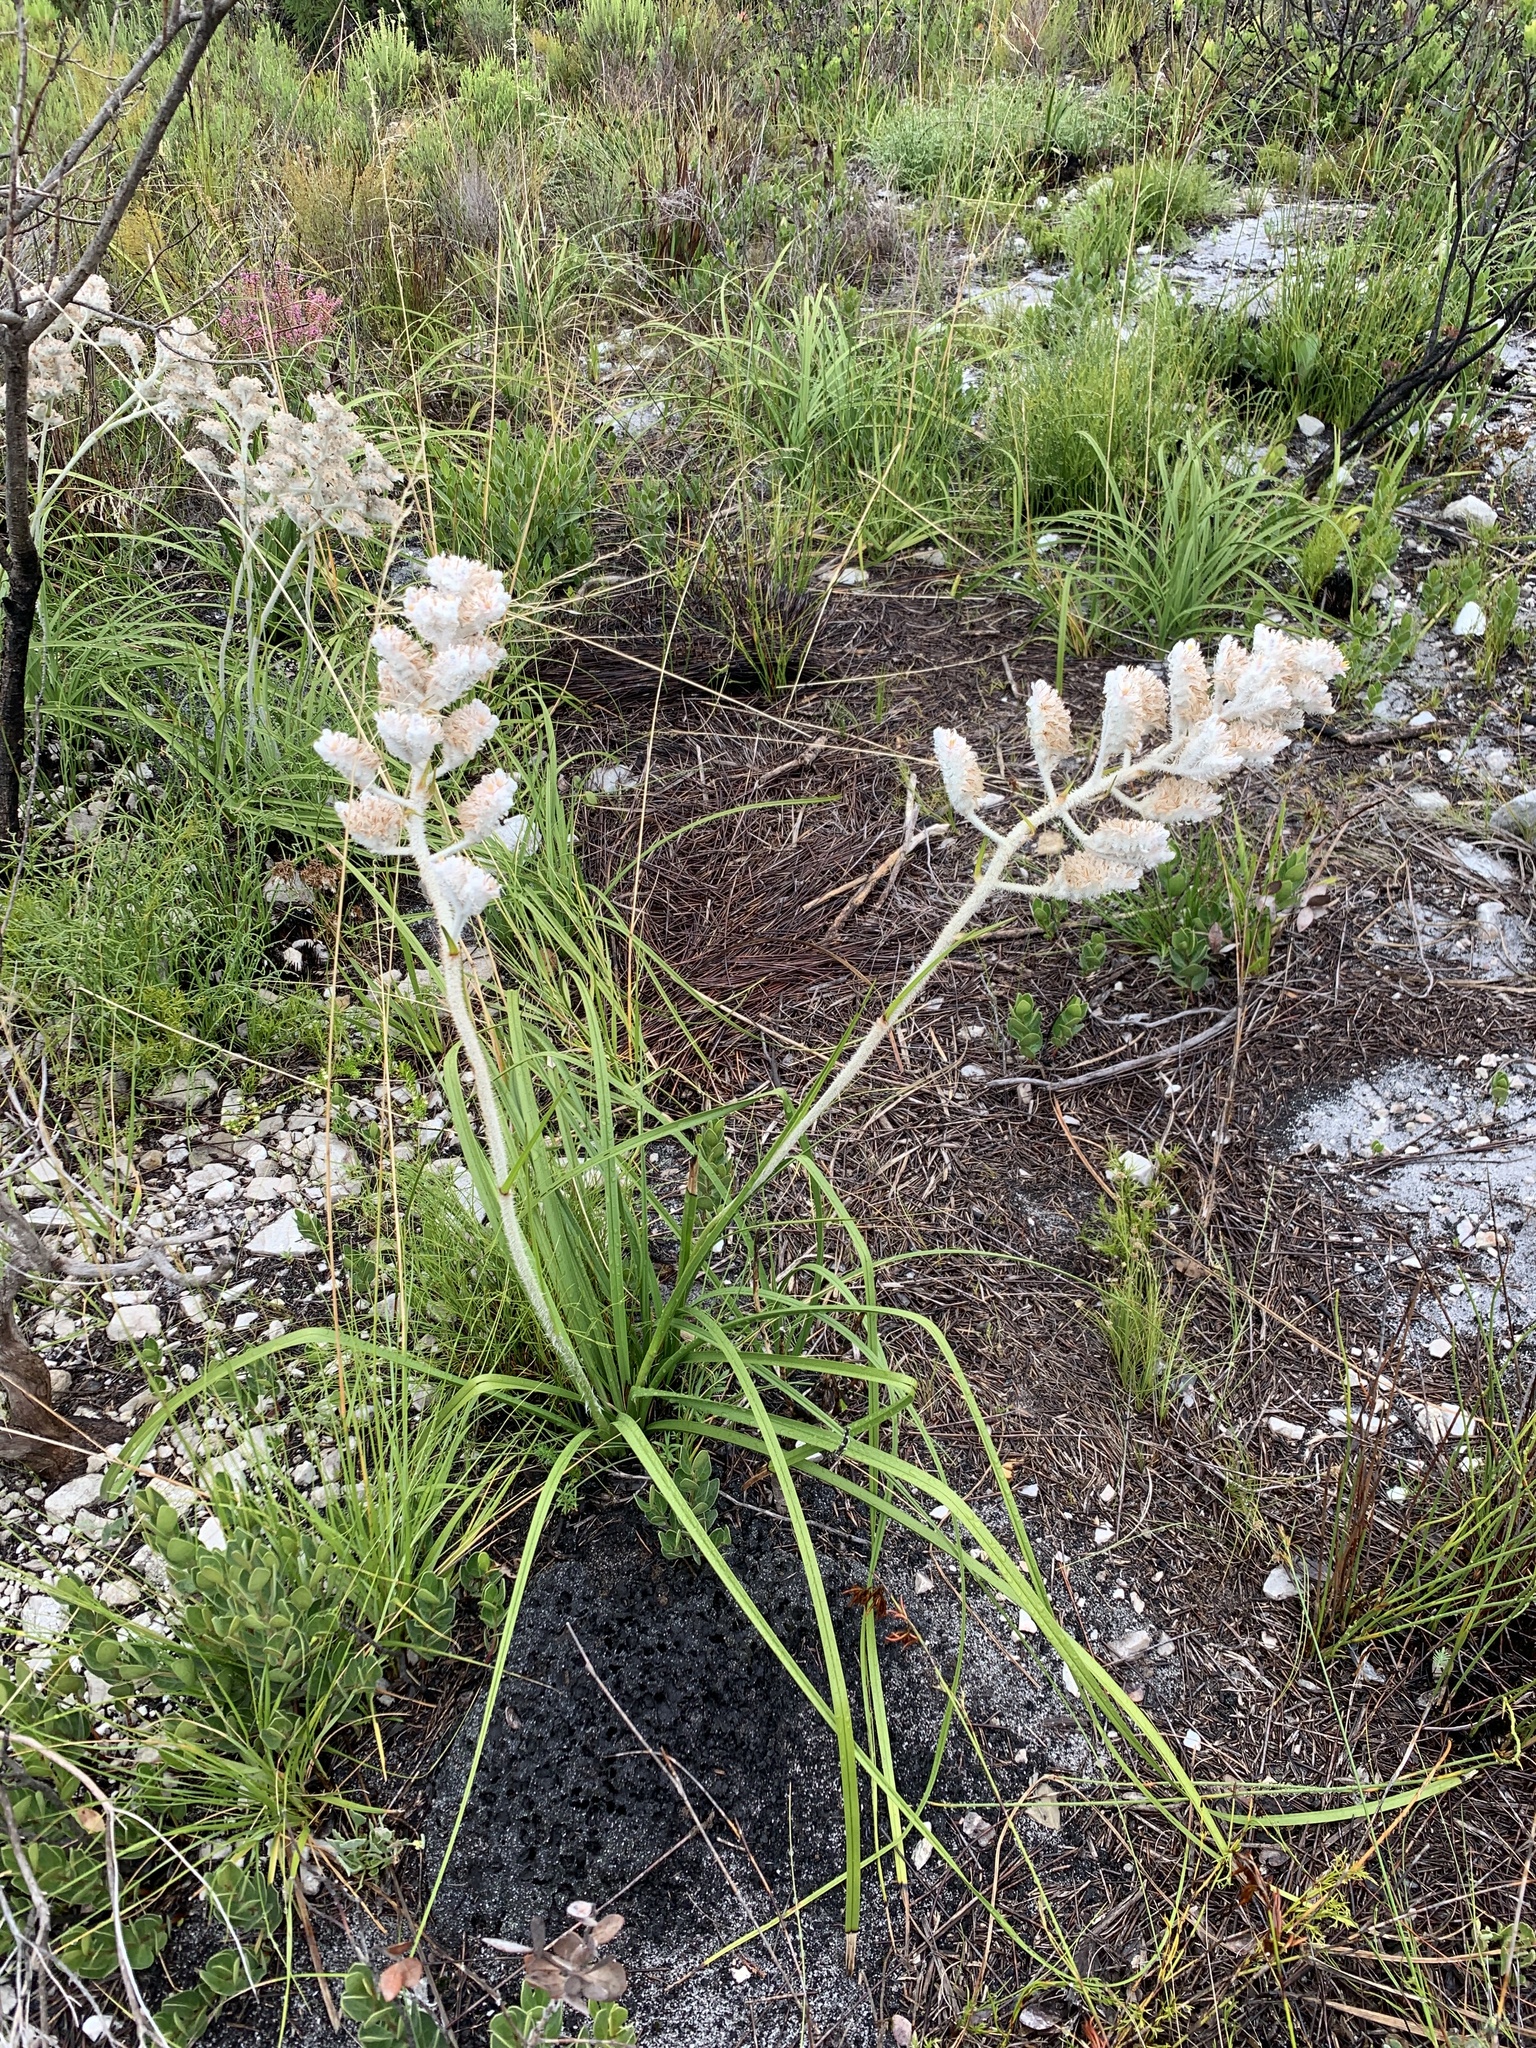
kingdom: Plantae
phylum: Tracheophyta
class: Liliopsida
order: Asparagales
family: Lanariaceae
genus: Lanaria
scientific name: Lanaria lanata
